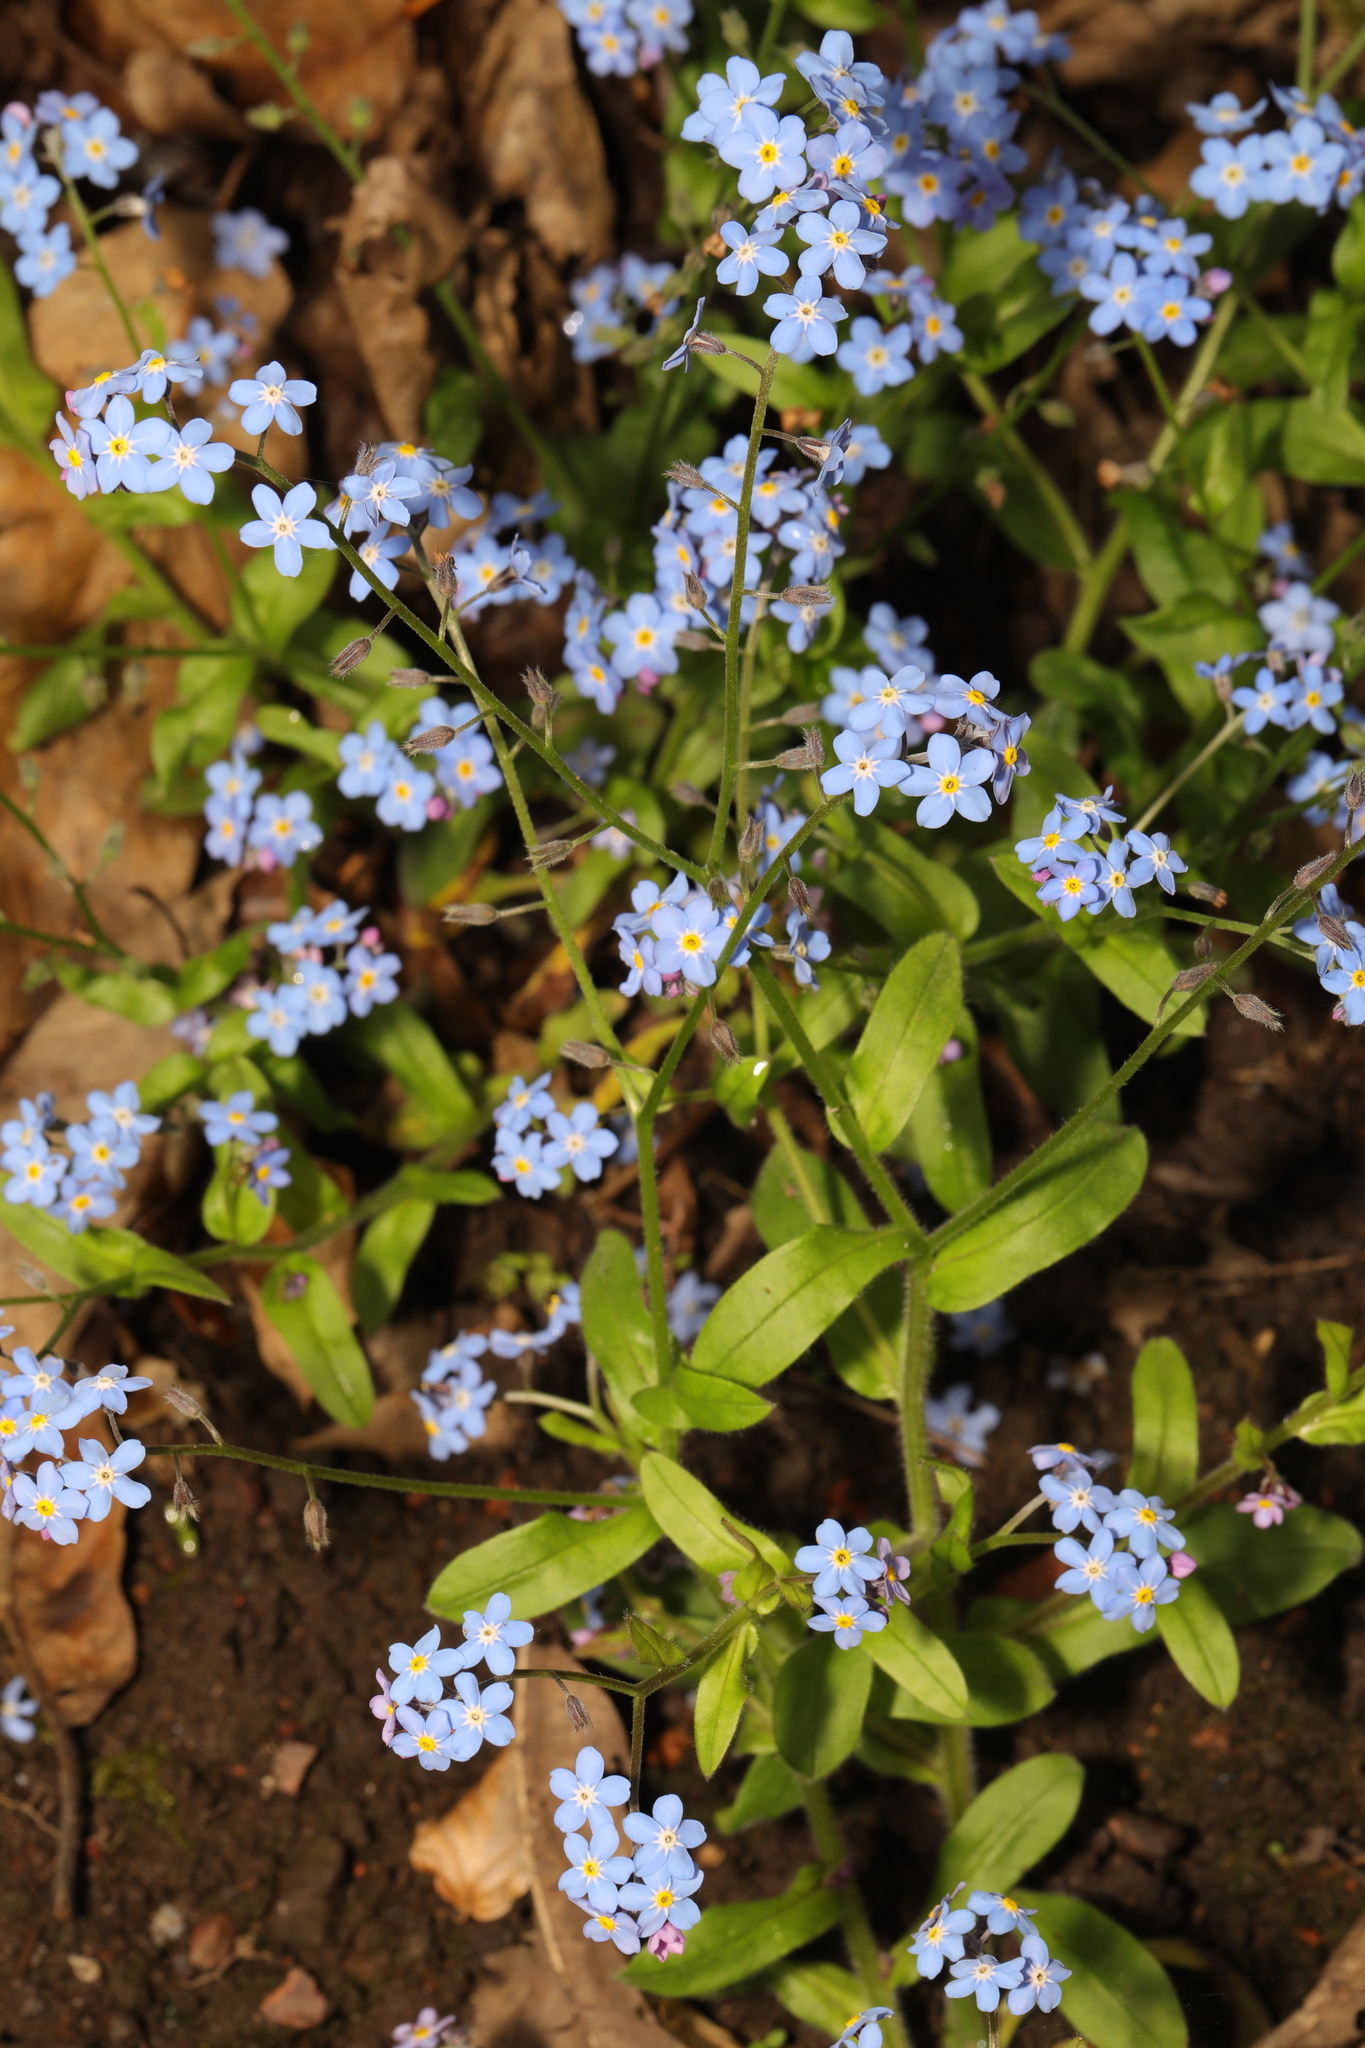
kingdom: Plantae
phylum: Tracheophyta
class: Magnoliopsida
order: Boraginales
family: Boraginaceae
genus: Myosotis
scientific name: Myosotis sylvatica
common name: Wood forget-me-not
